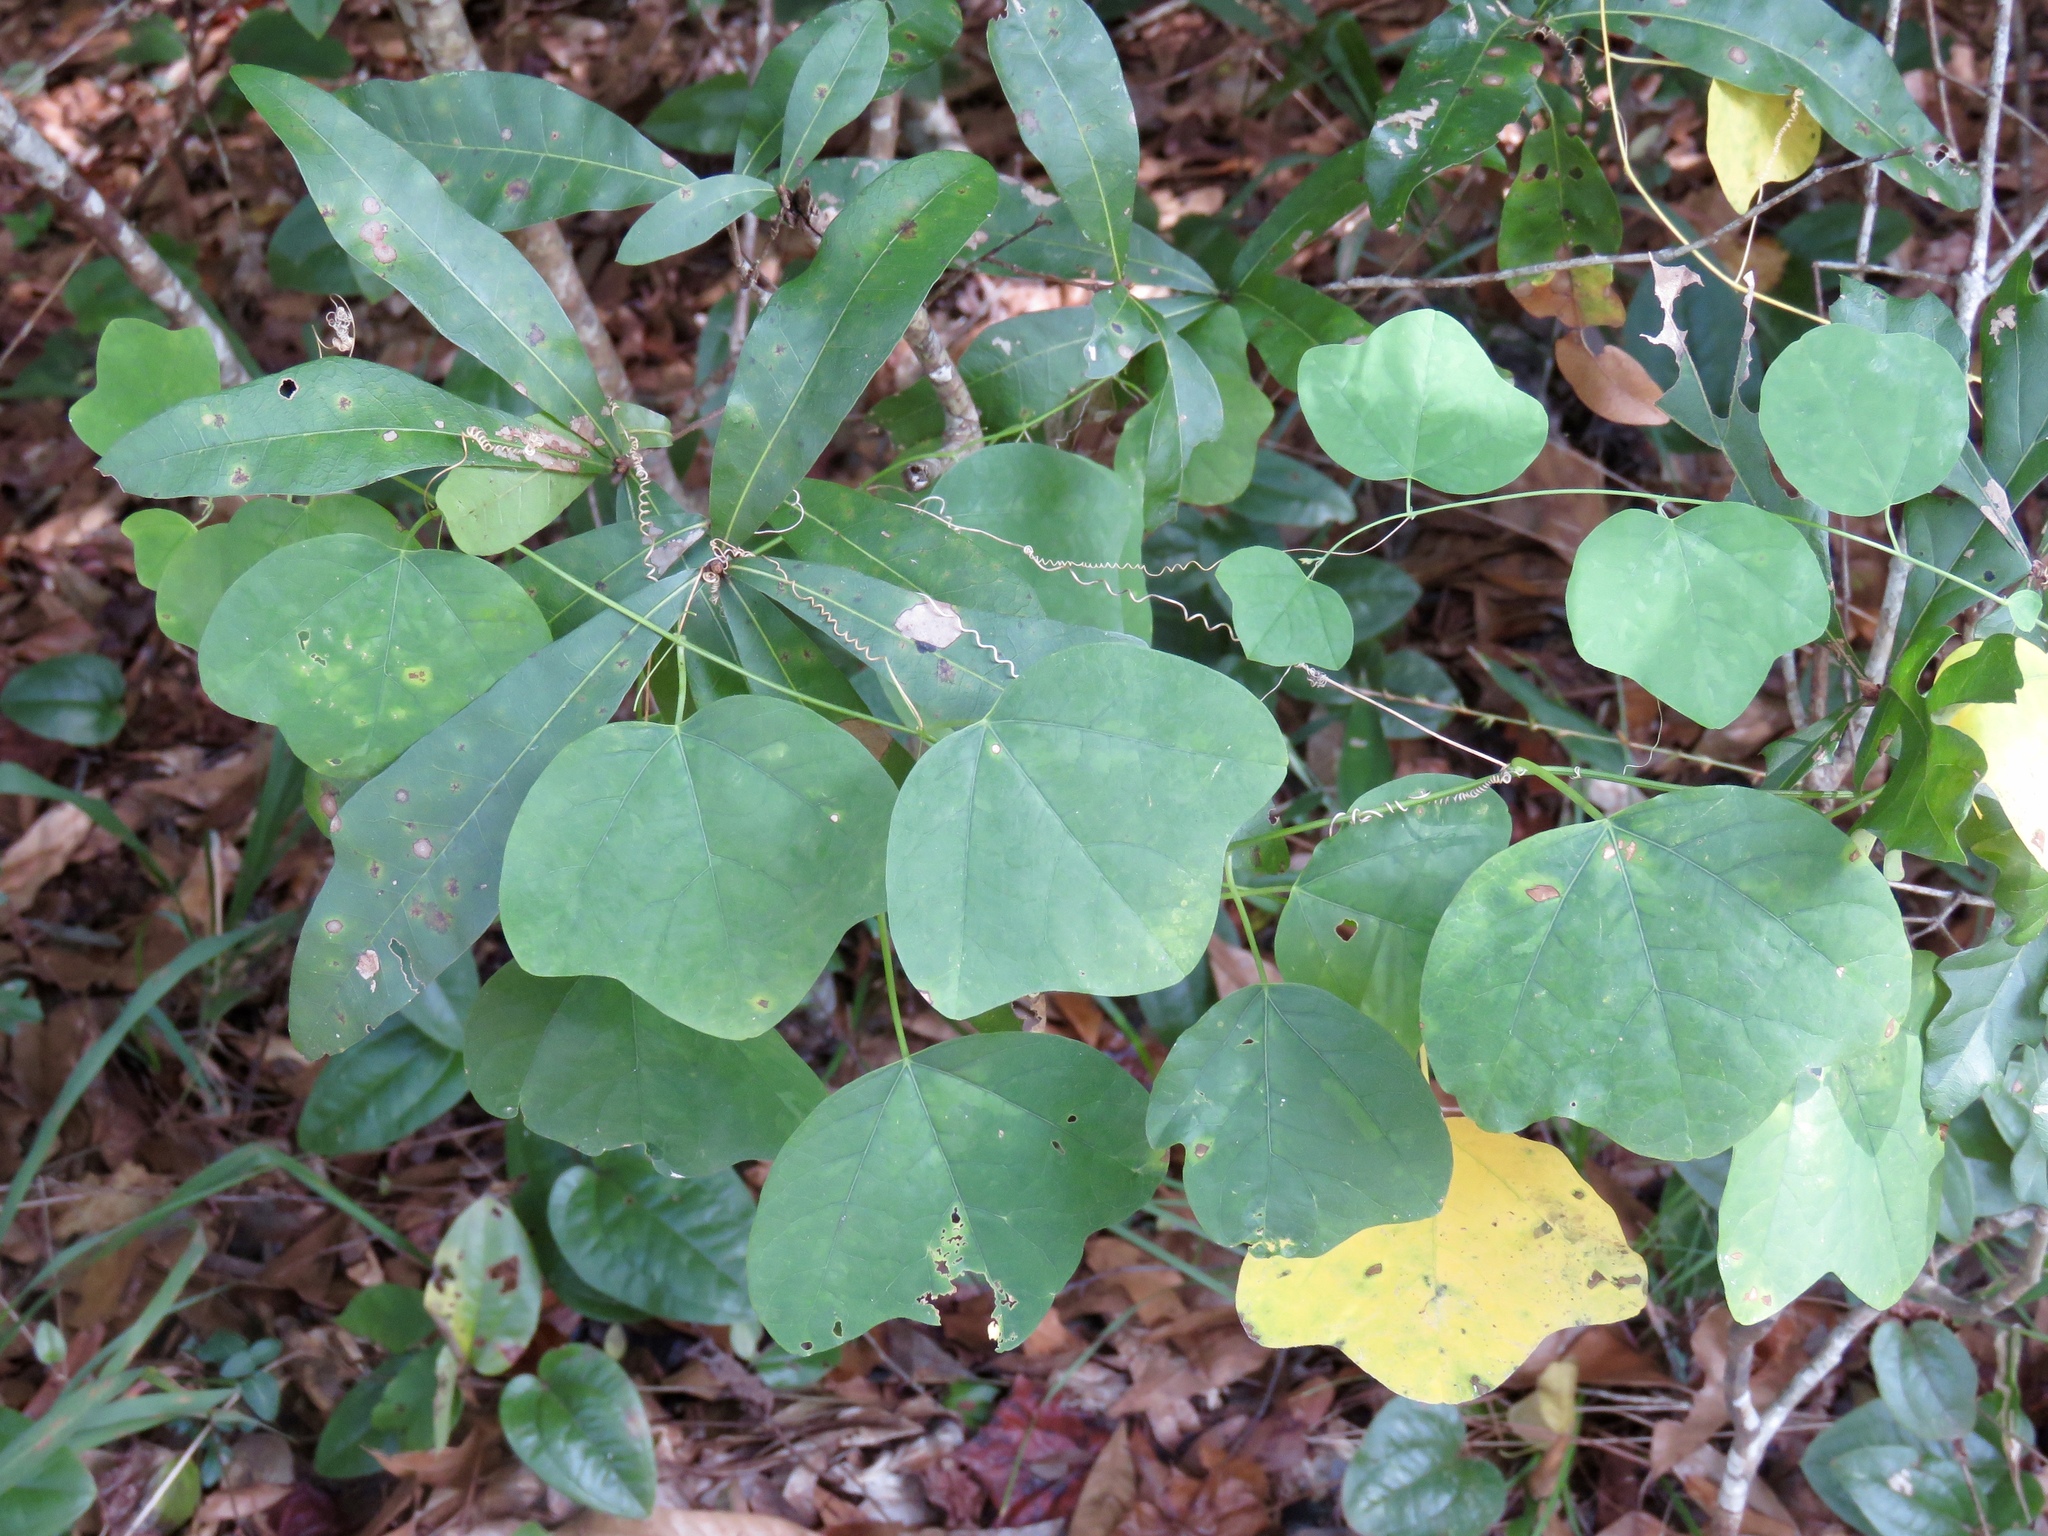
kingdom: Plantae
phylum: Tracheophyta
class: Magnoliopsida
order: Malpighiales
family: Passifloraceae
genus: Passiflora
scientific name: Passiflora lutea
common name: Yellow passionflower
